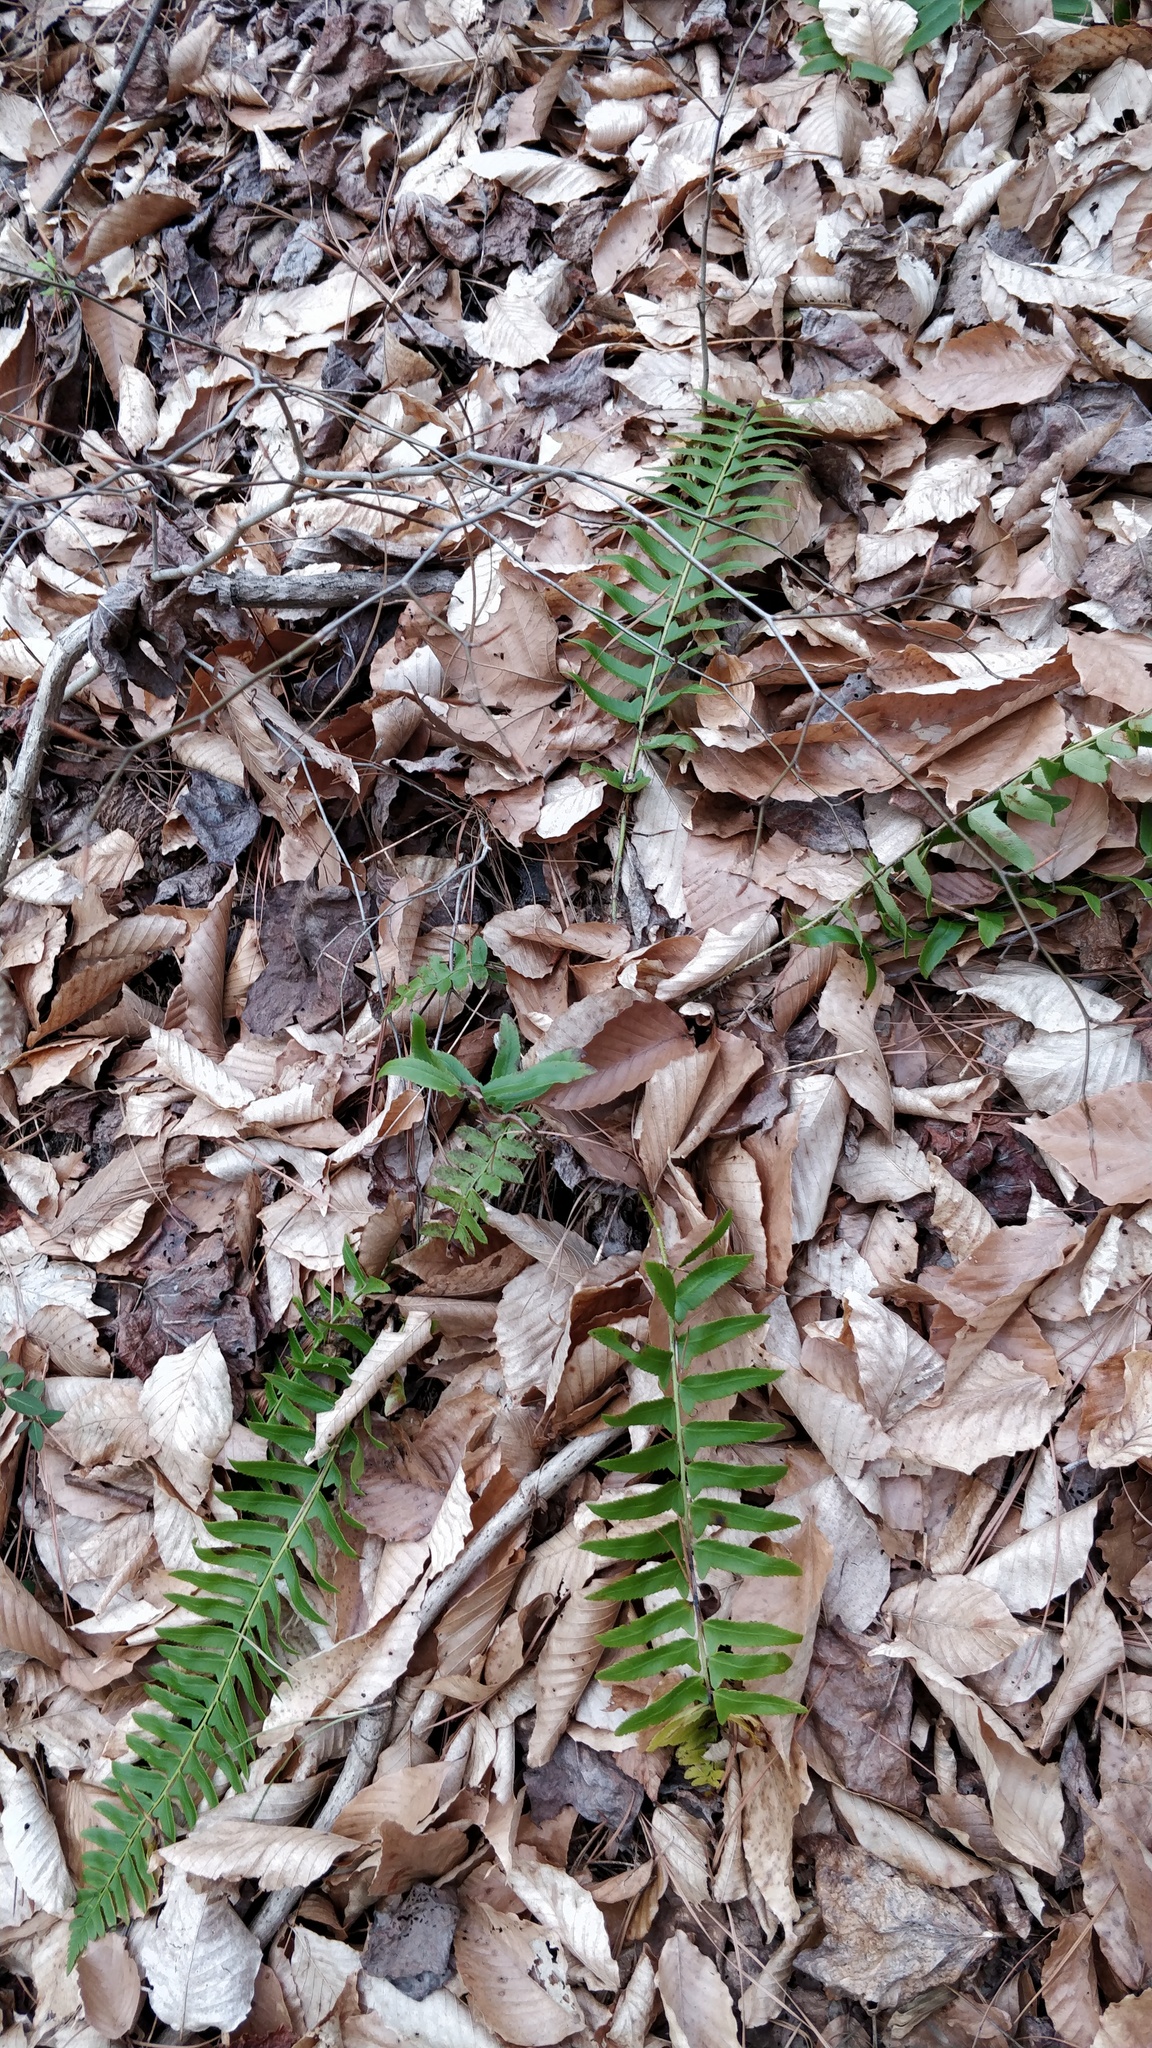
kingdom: Plantae
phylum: Tracheophyta
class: Polypodiopsida
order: Polypodiales
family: Dryopteridaceae
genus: Polystichum
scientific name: Polystichum acrostichoides
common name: Christmas fern
